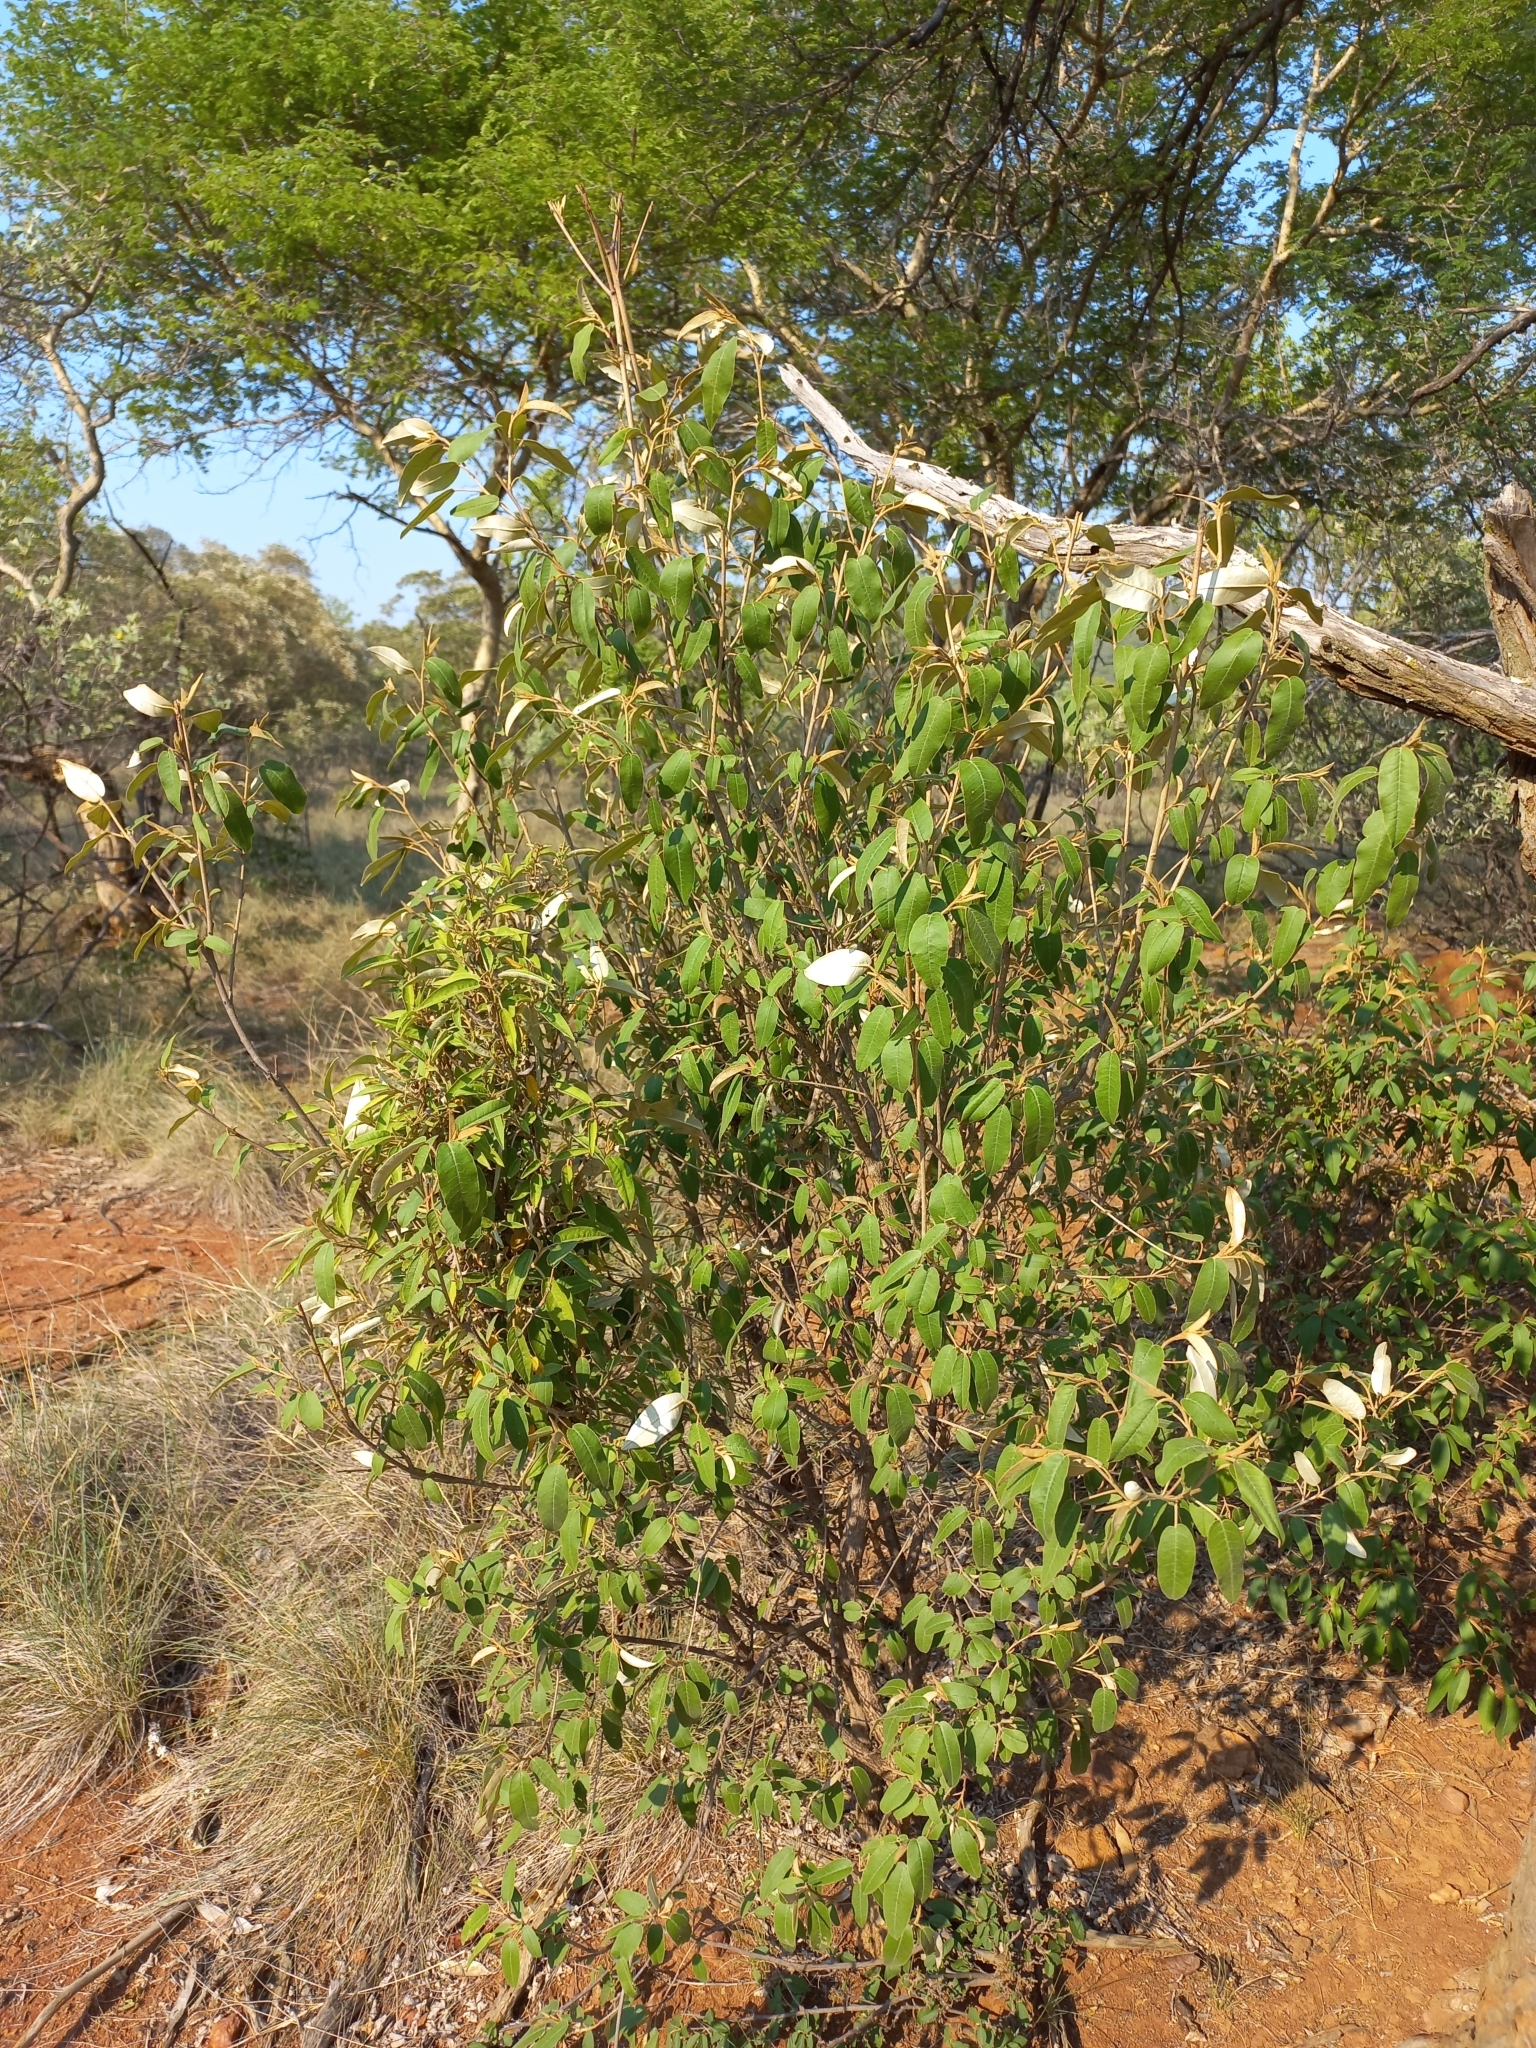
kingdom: Plantae
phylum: Tracheophyta
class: Magnoliopsida
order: Malpighiales
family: Euphorbiaceae
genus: Croton
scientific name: Croton gratissimus
